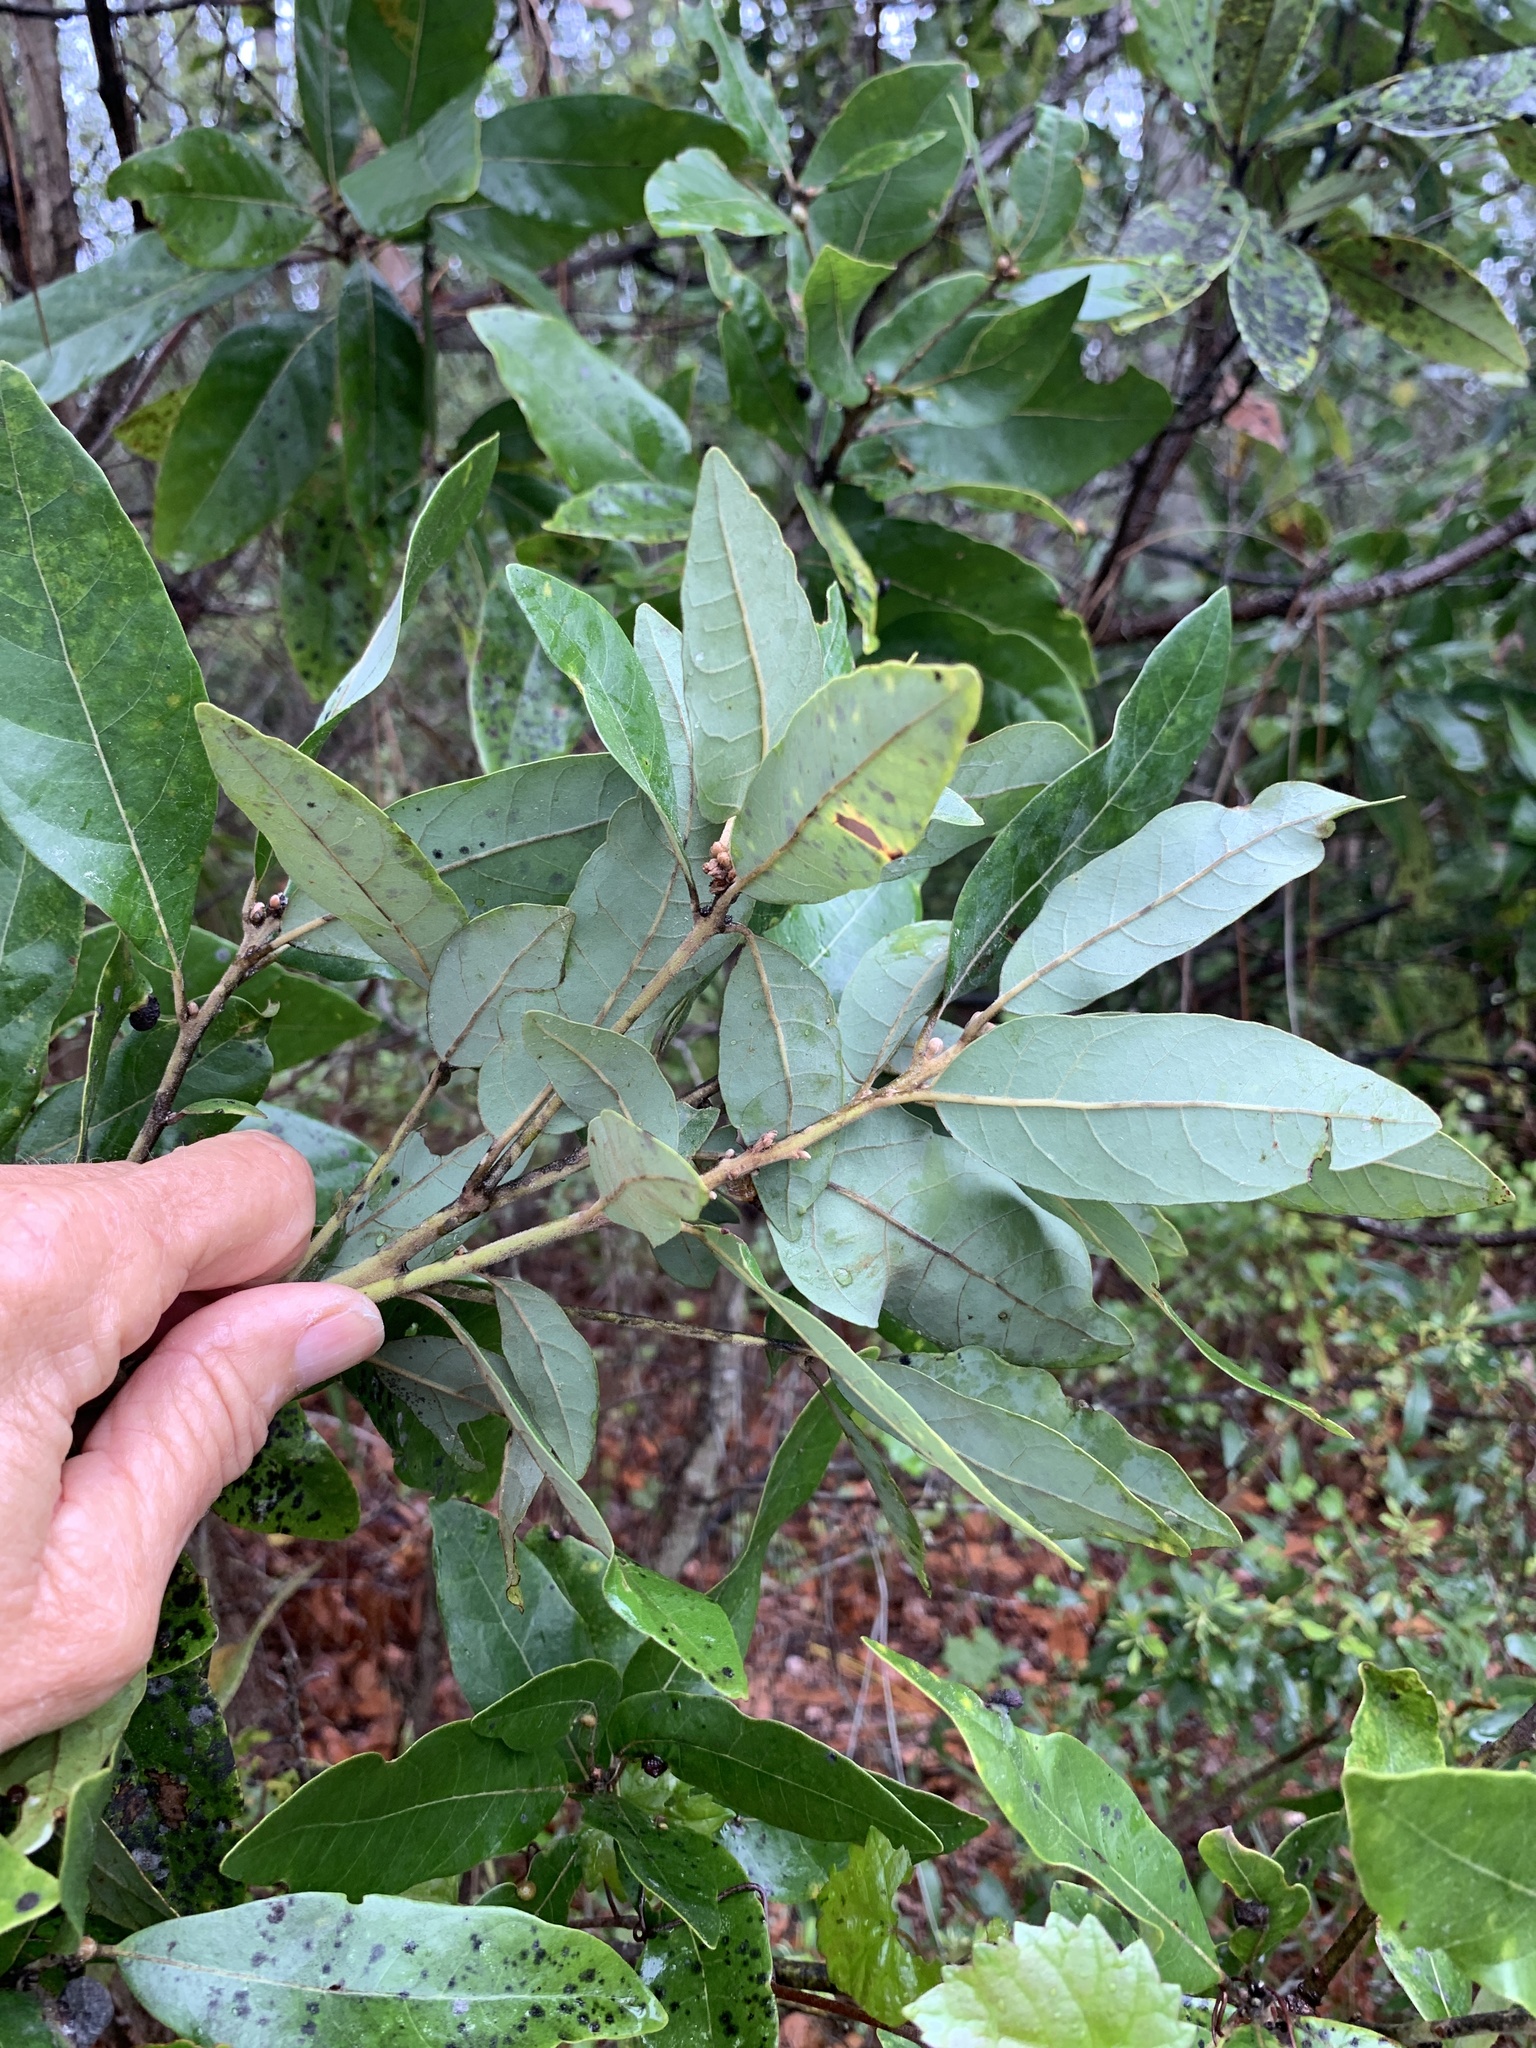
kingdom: Plantae
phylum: Tracheophyta
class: Magnoliopsida
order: Laurales
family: Lauraceae
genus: Persea
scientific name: Persea borbonia
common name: Redbay
